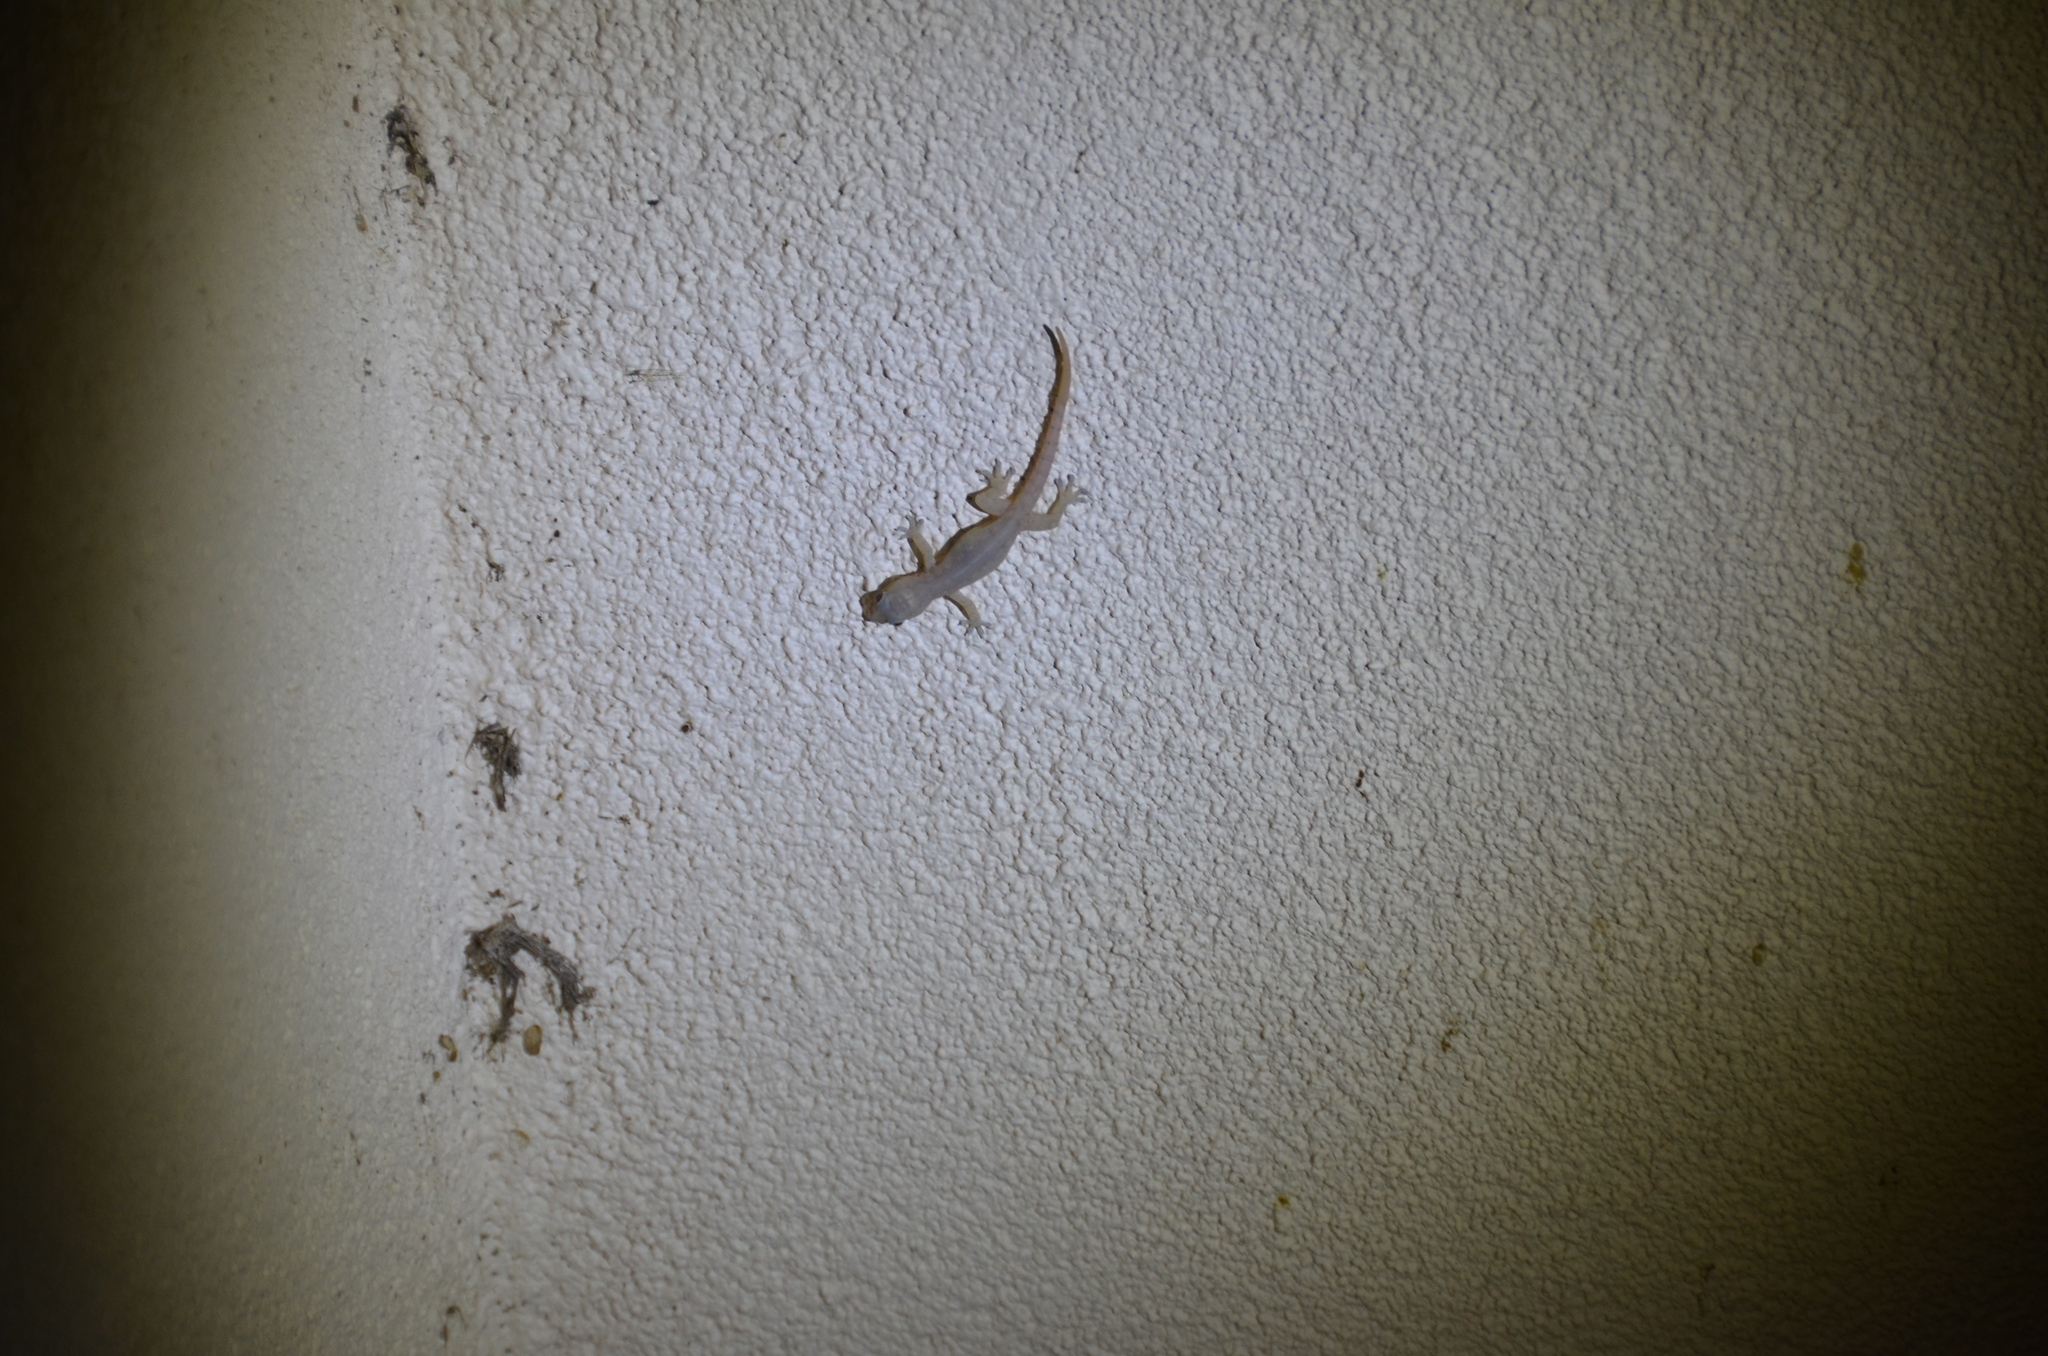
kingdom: Animalia
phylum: Chordata
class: Squamata
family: Gekkonidae
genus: Hemidactylus
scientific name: Hemidactylus frenatus
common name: Common house gecko
